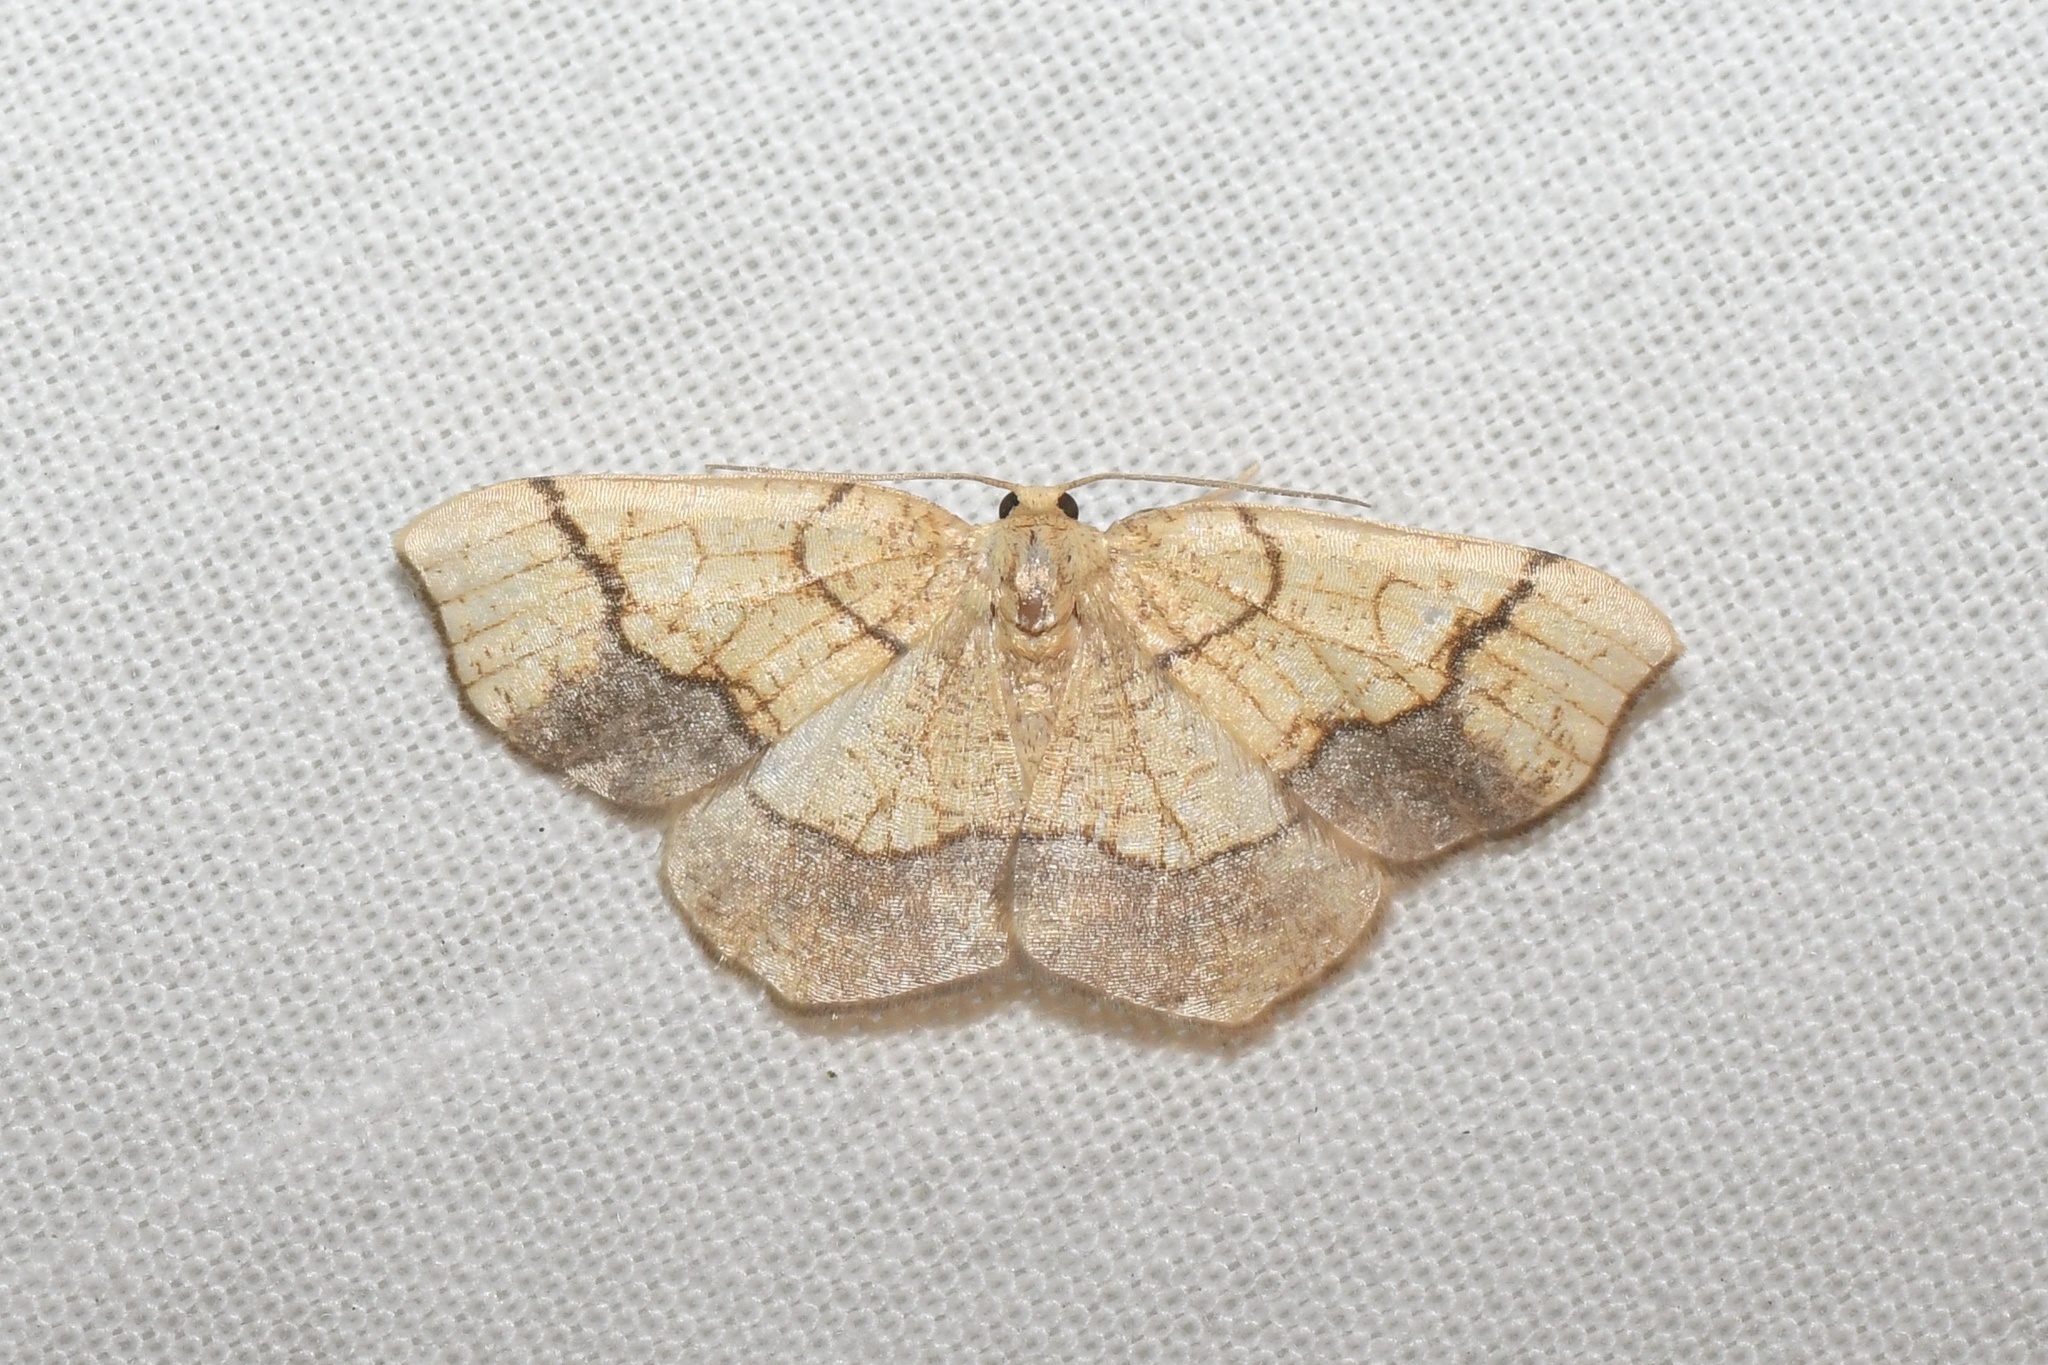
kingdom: Animalia
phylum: Arthropoda
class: Insecta
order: Lepidoptera
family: Geometridae
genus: Nematocampa
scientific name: Nematocampa resistaria
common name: Horned spanworm moth
